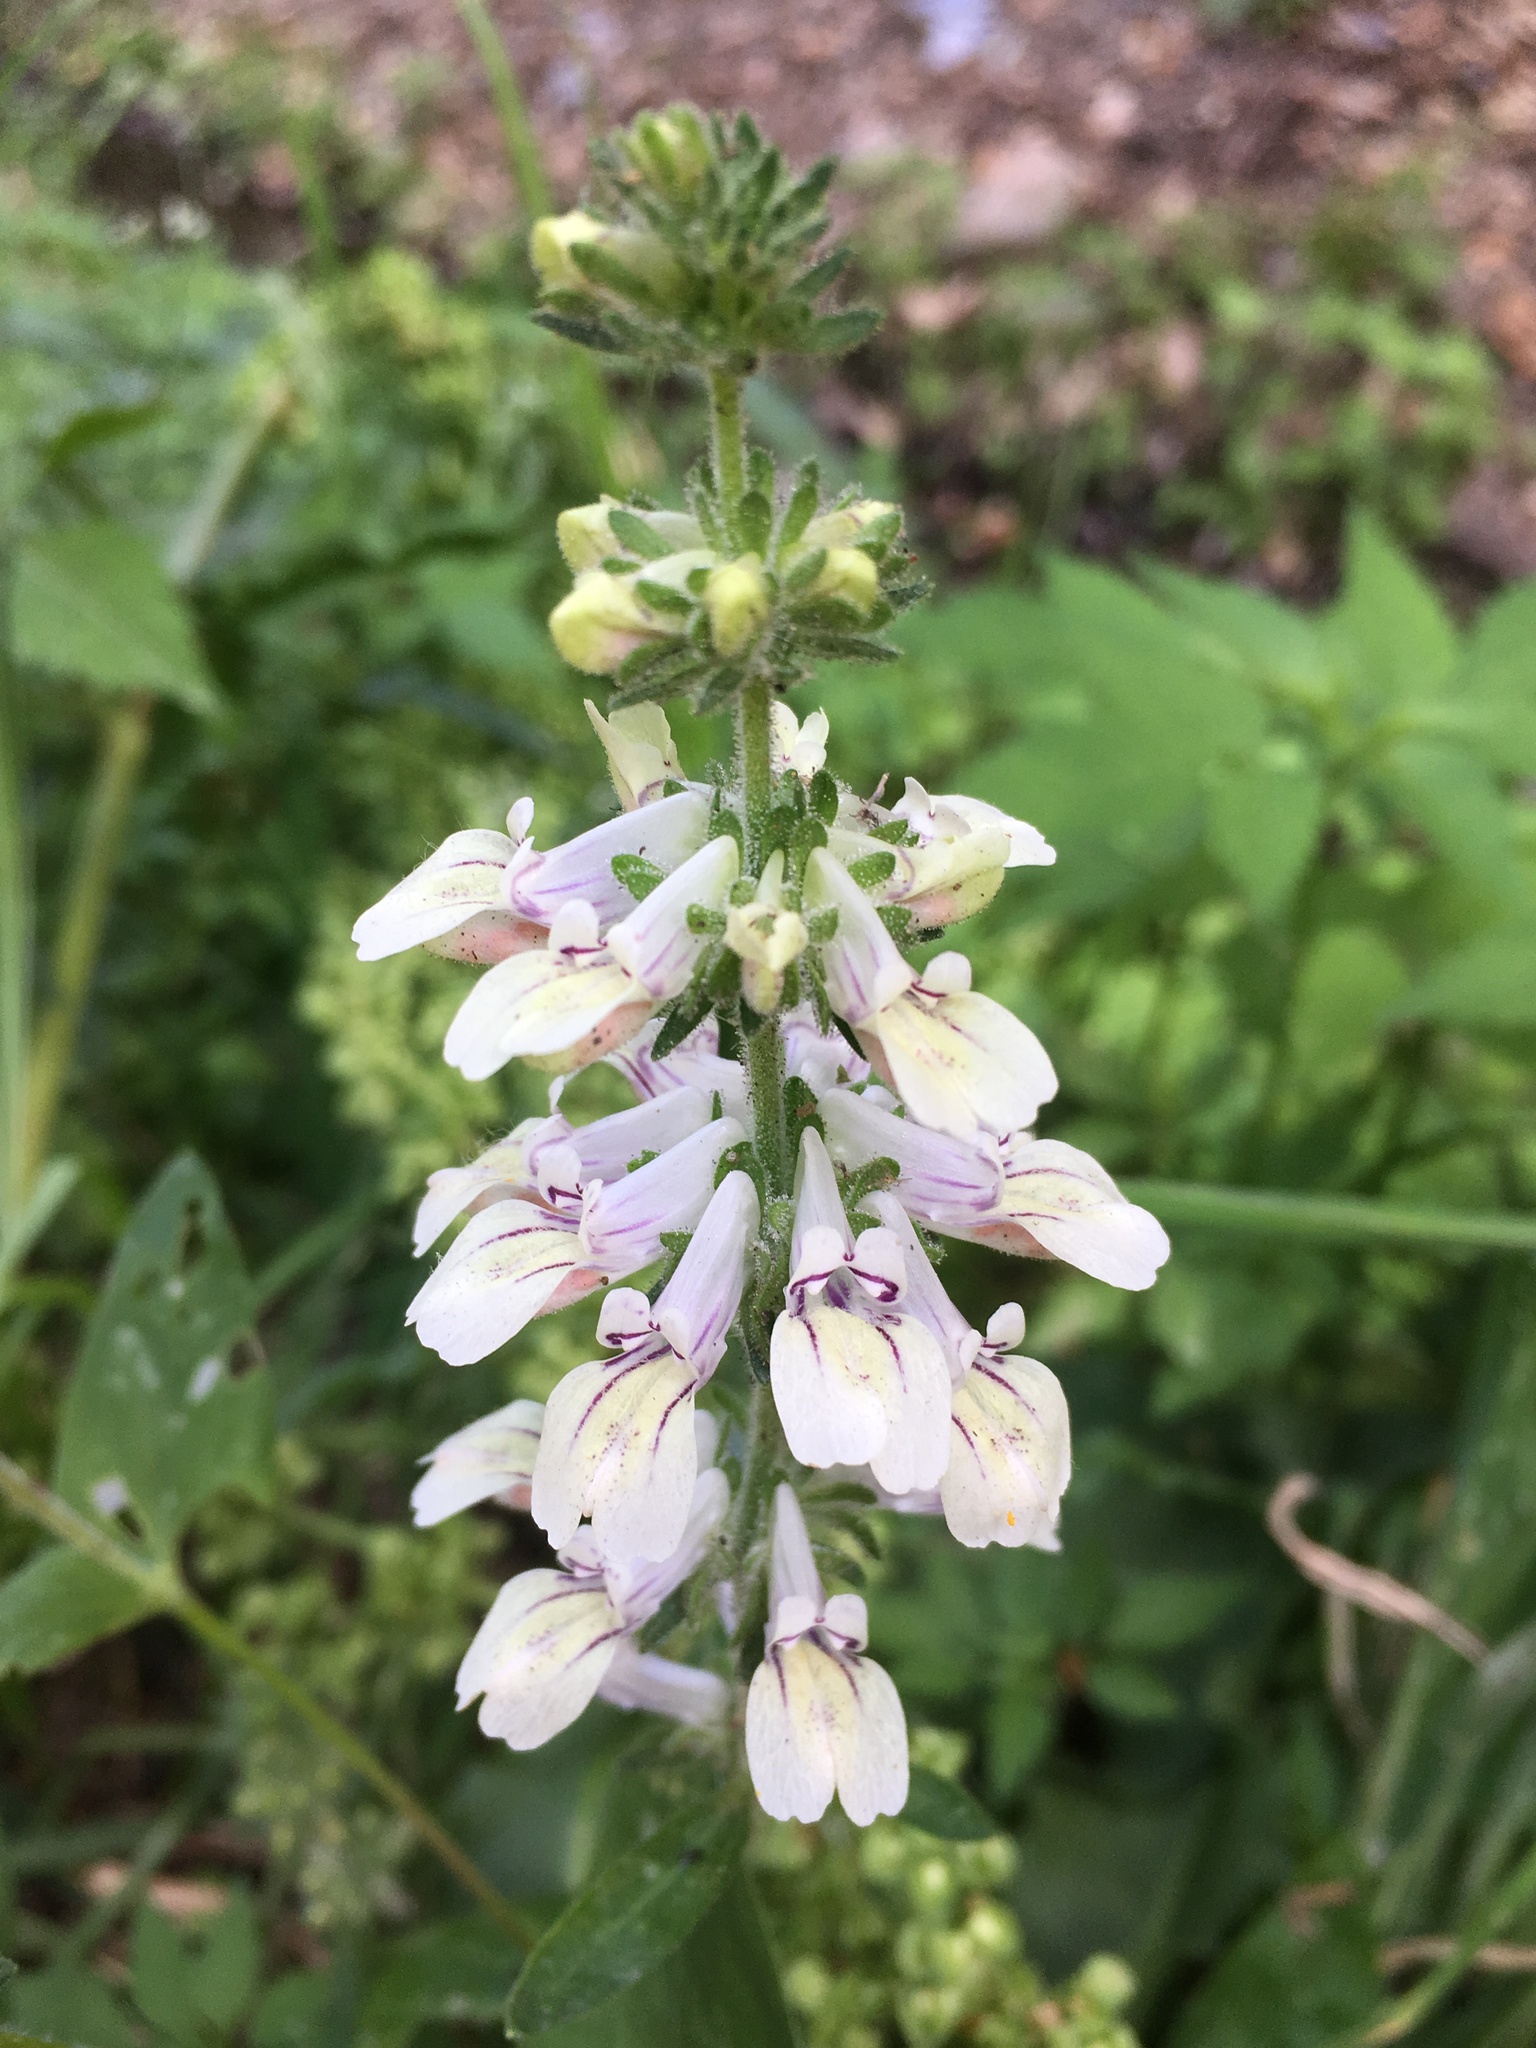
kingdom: Plantae
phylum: Tracheophyta
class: Magnoliopsida
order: Lamiales
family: Plantaginaceae
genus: Collinsia
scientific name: Collinsia tinctoria
